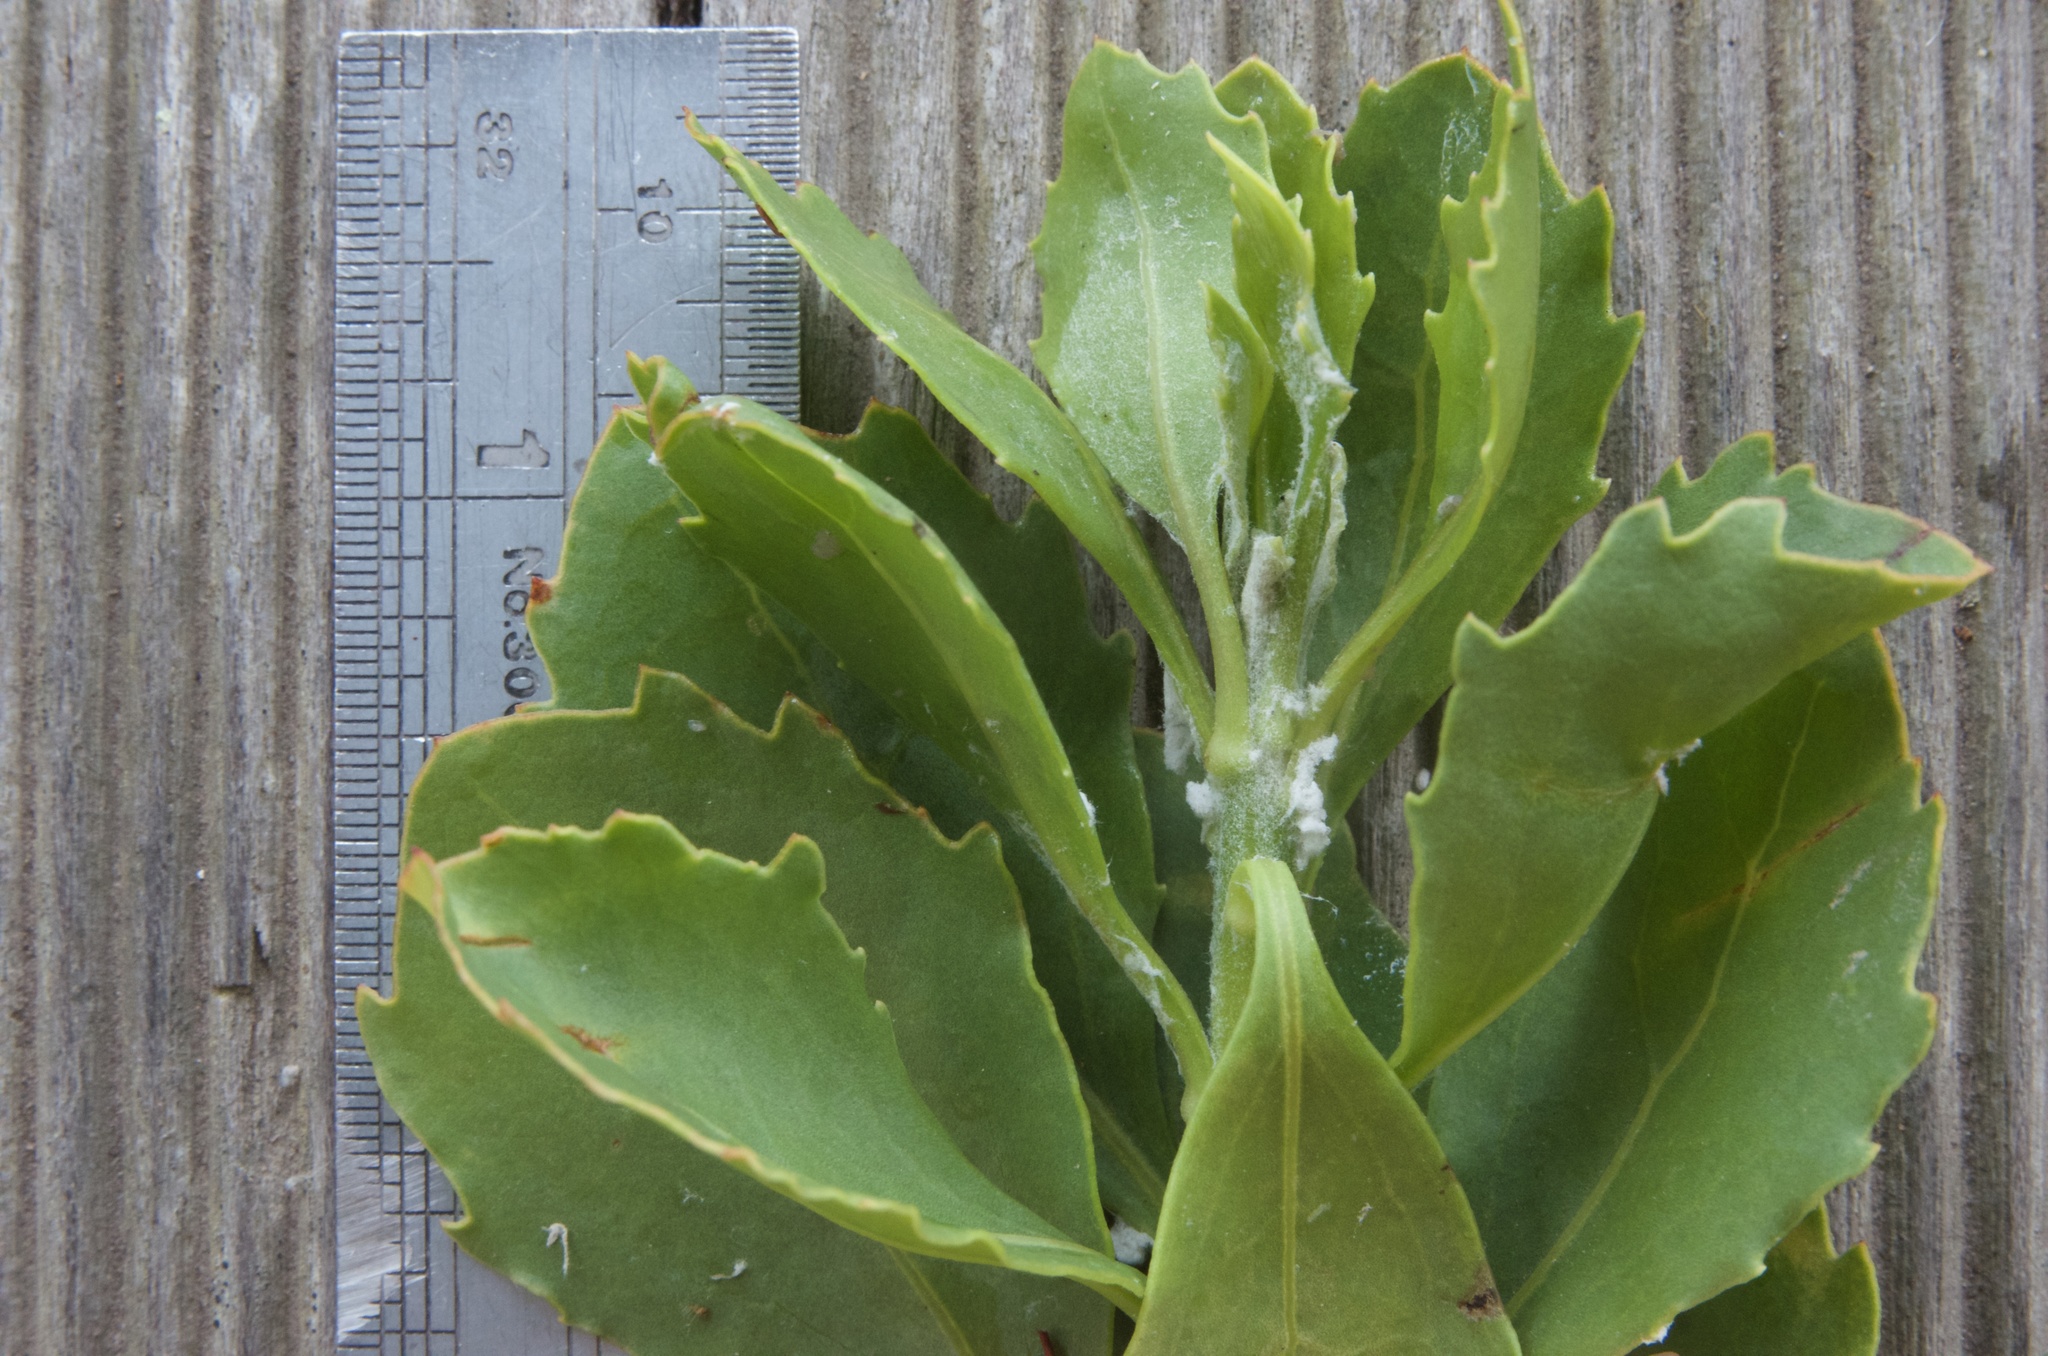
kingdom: Plantae
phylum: Tracheophyta
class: Magnoliopsida
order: Asterales
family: Asteraceae
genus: Osteospermum
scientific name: Osteospermum moniliferum
